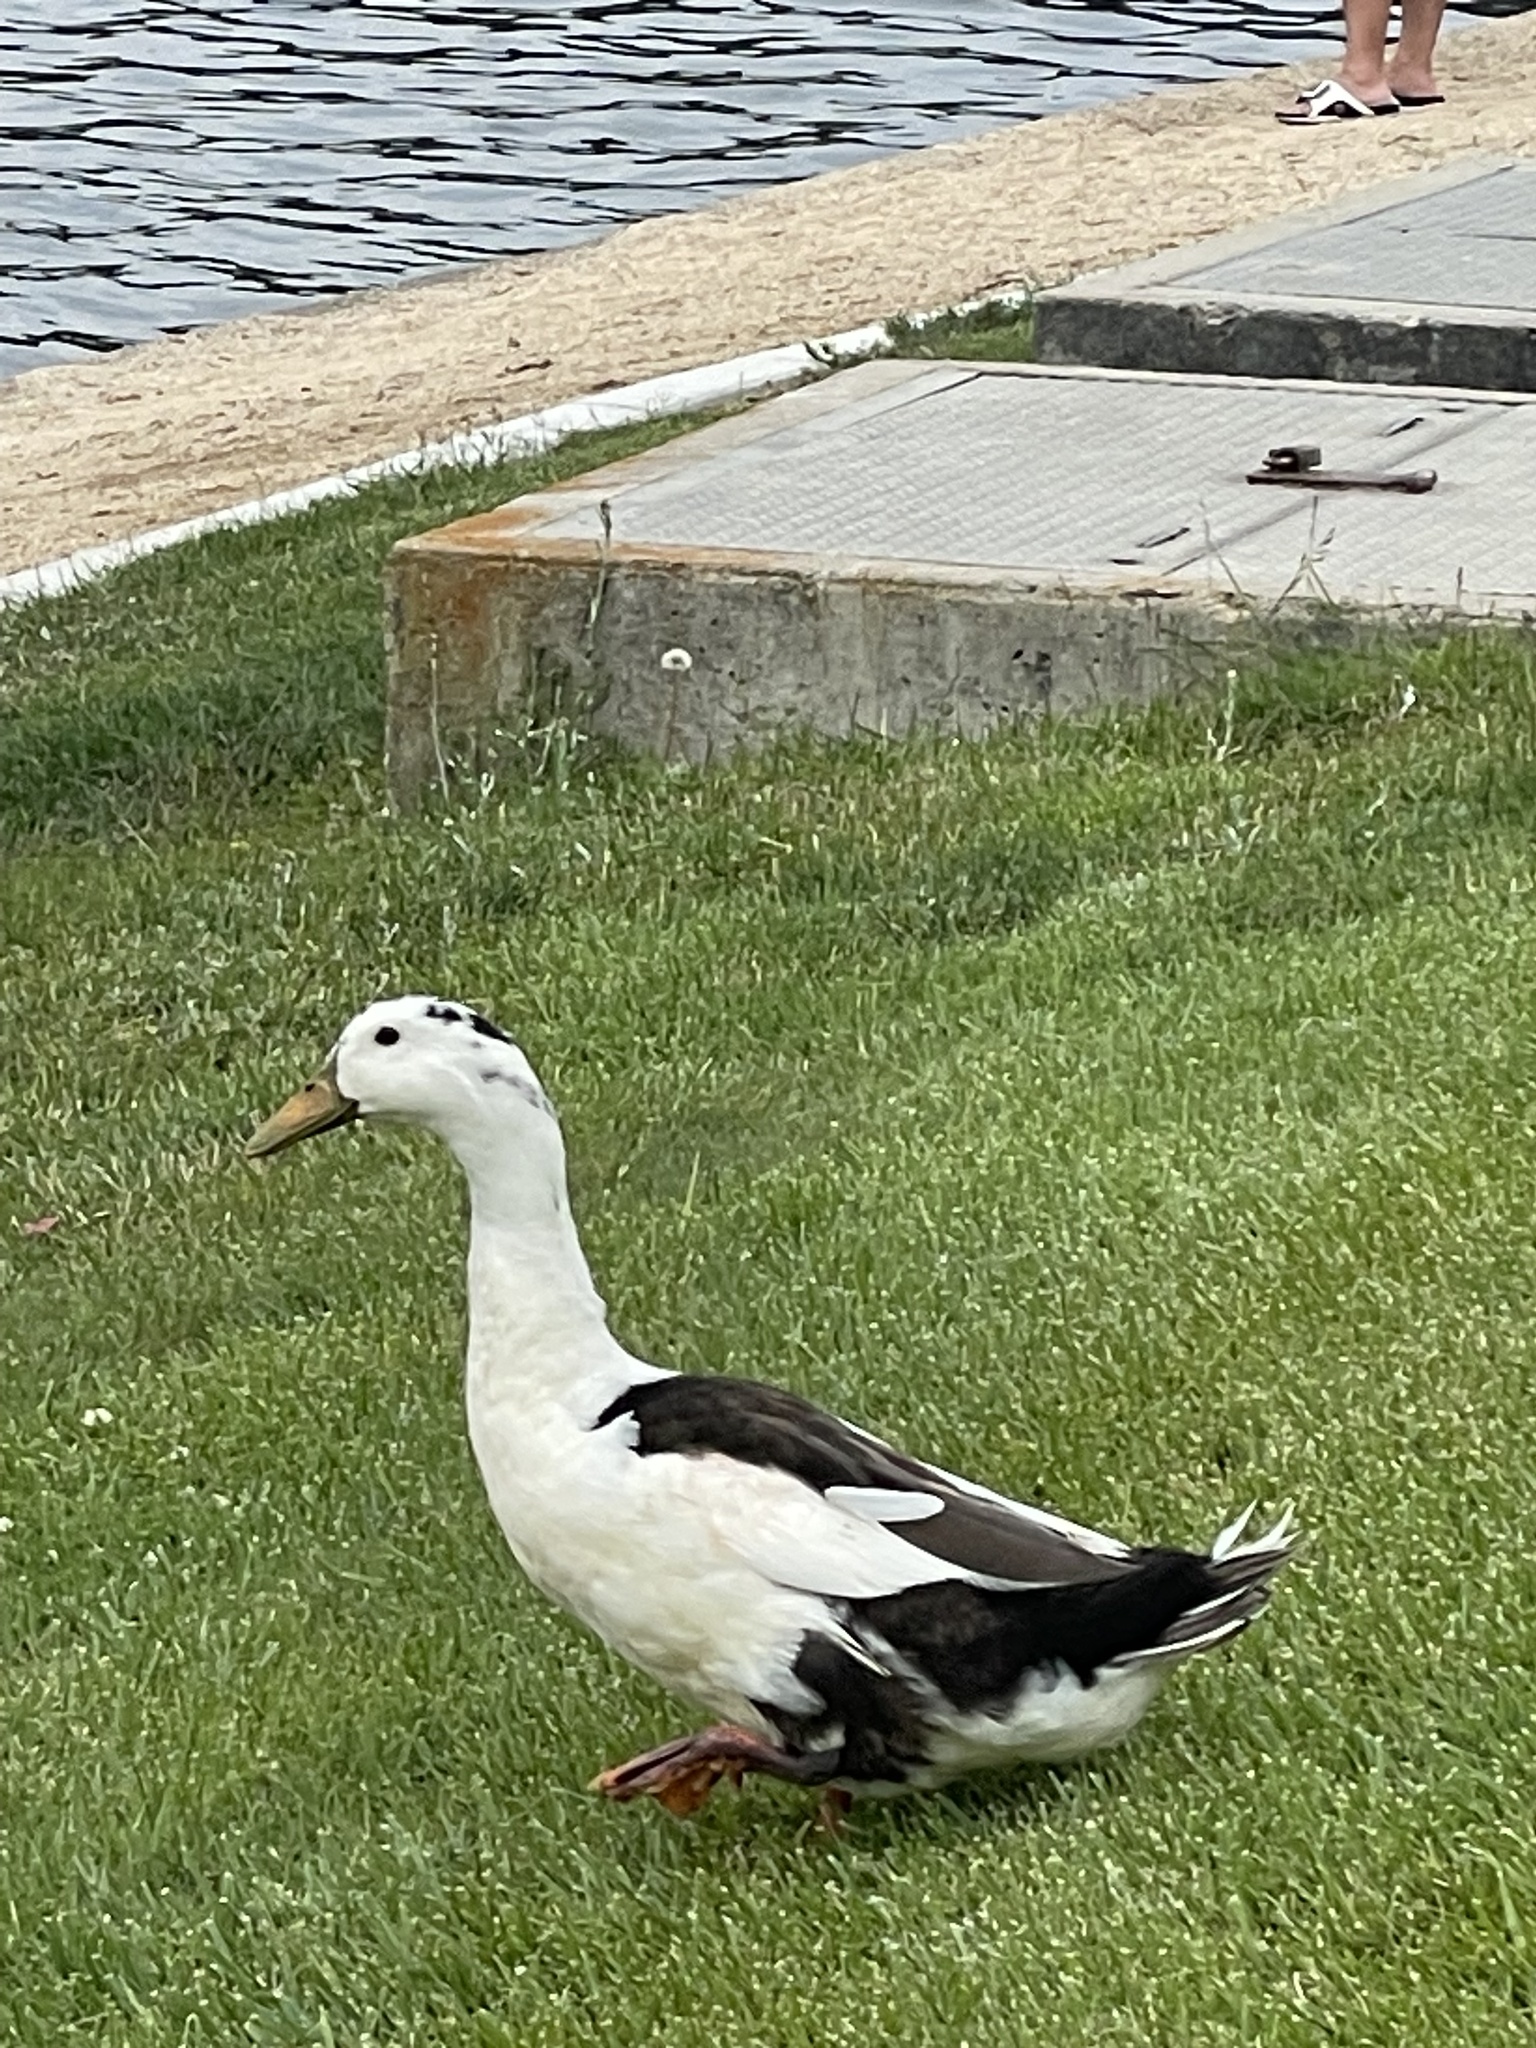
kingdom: Animalia
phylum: Chordata
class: Aves
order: Anseriformes
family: Anatidae
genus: Anas
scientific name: Anas platyrhynchos
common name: Mallard
